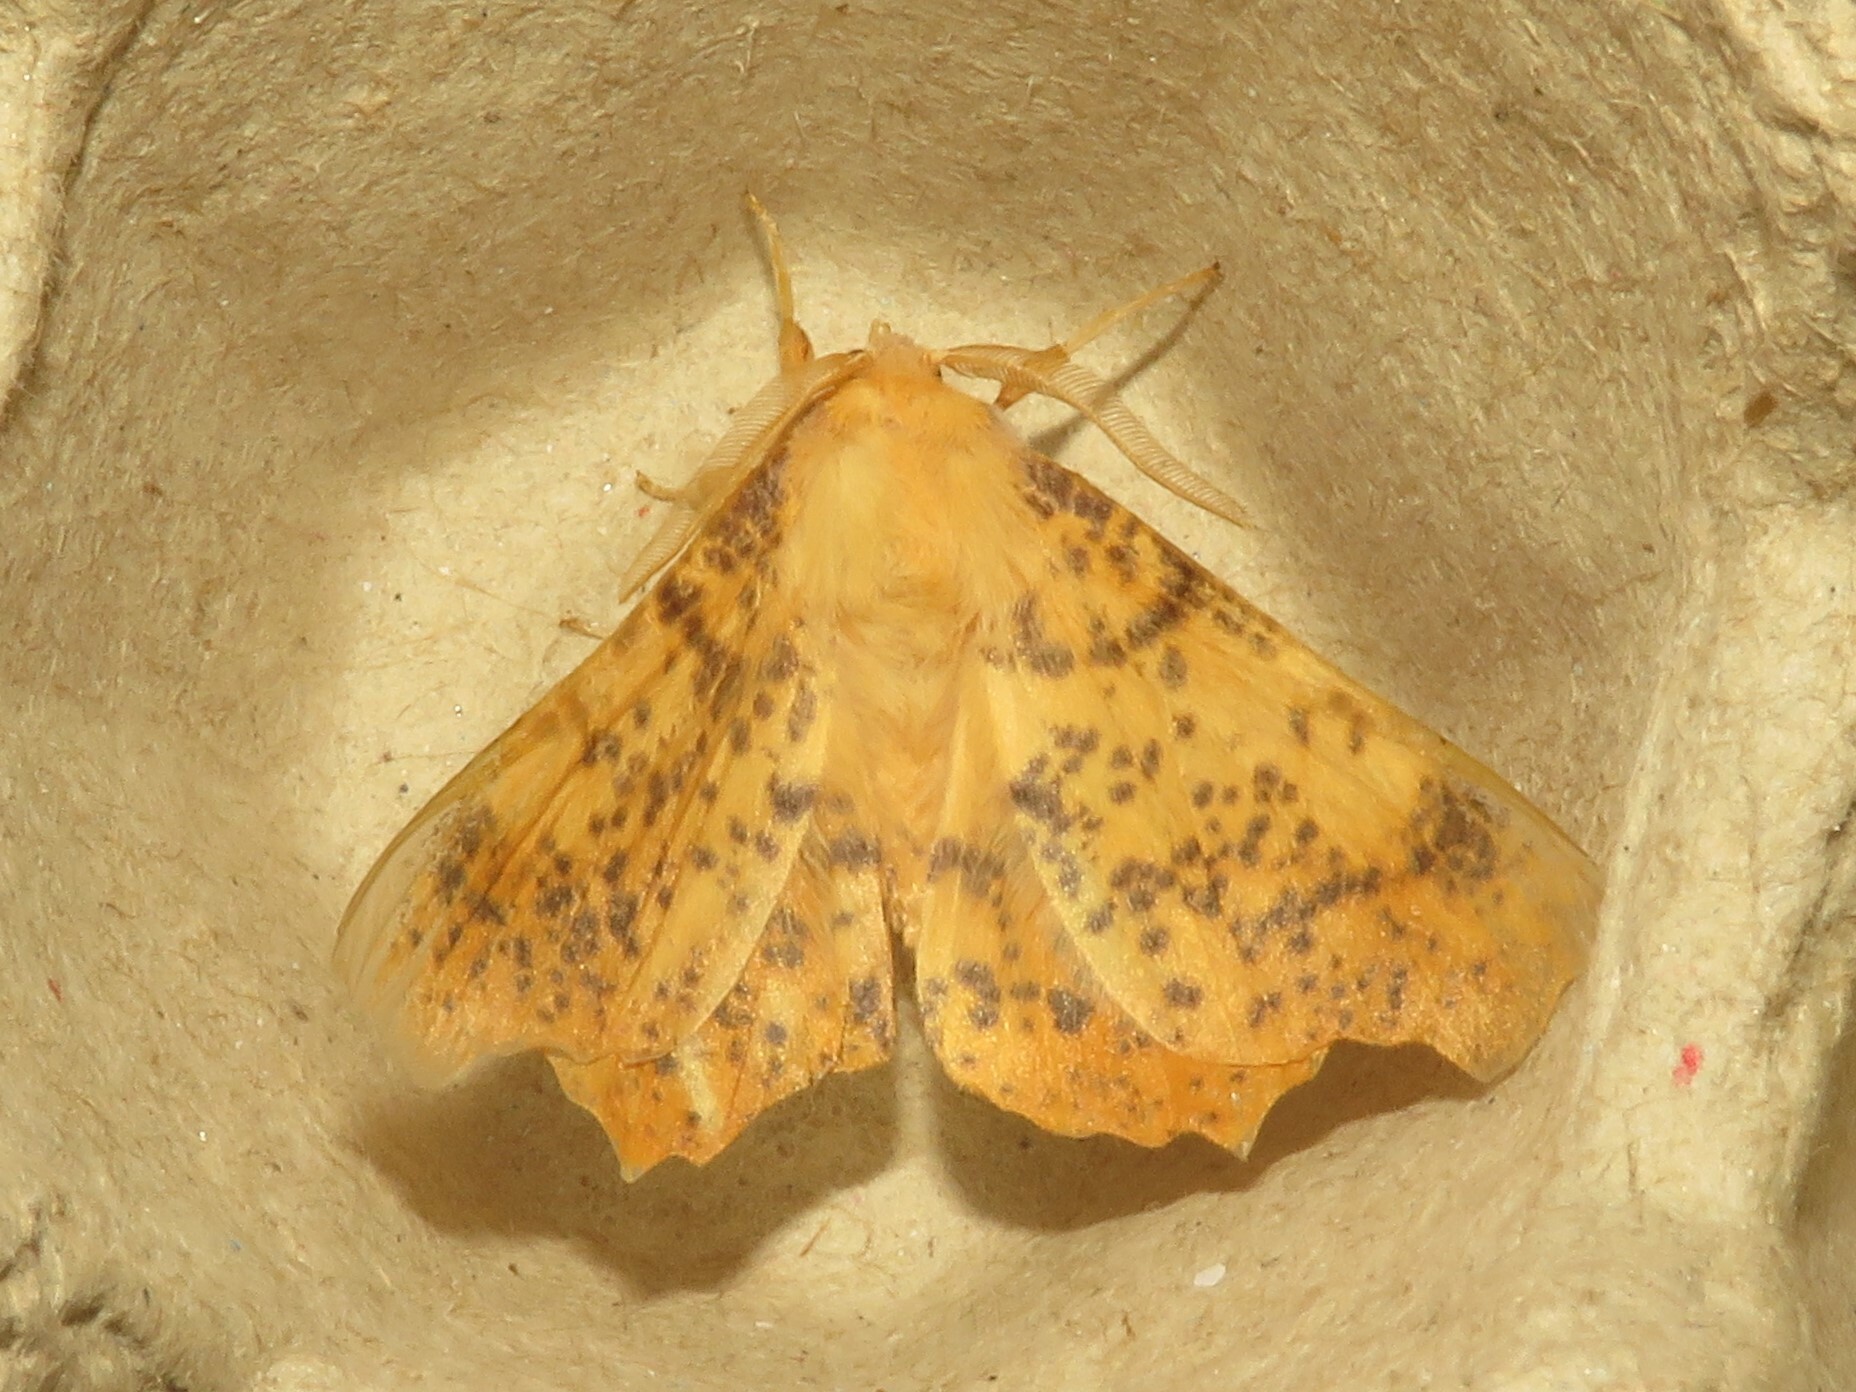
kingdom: Animalia
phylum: Arthropoda
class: Insecta
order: Lepidoptera
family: Geometridae
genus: Ennomos
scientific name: Ennomos magnaria
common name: Maple spanworm
